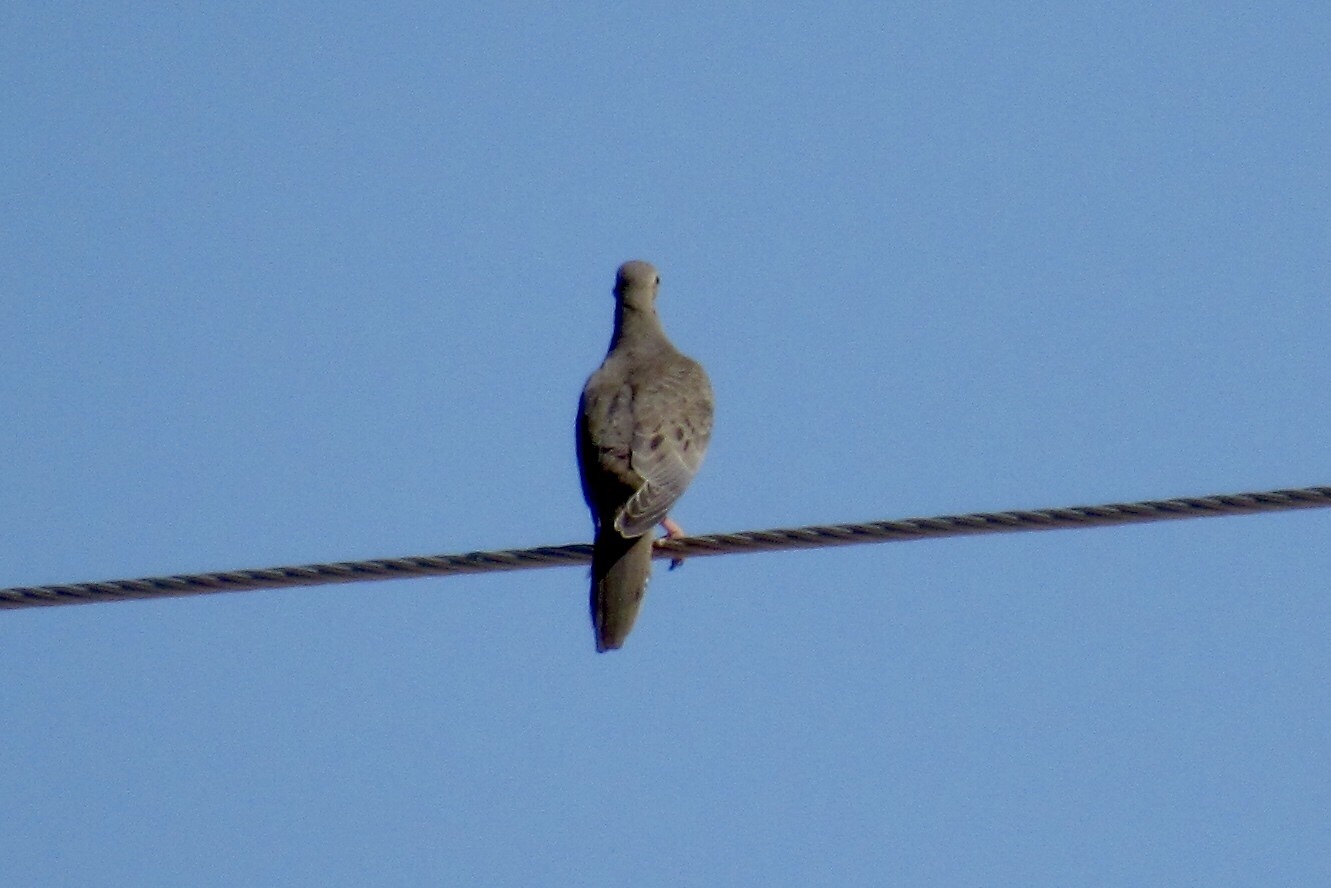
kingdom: Animalia
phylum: Chordata
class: Aves
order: Columbiformes
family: Columbidae
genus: Zenaida
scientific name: Zenaida macroura
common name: Mourning dove
